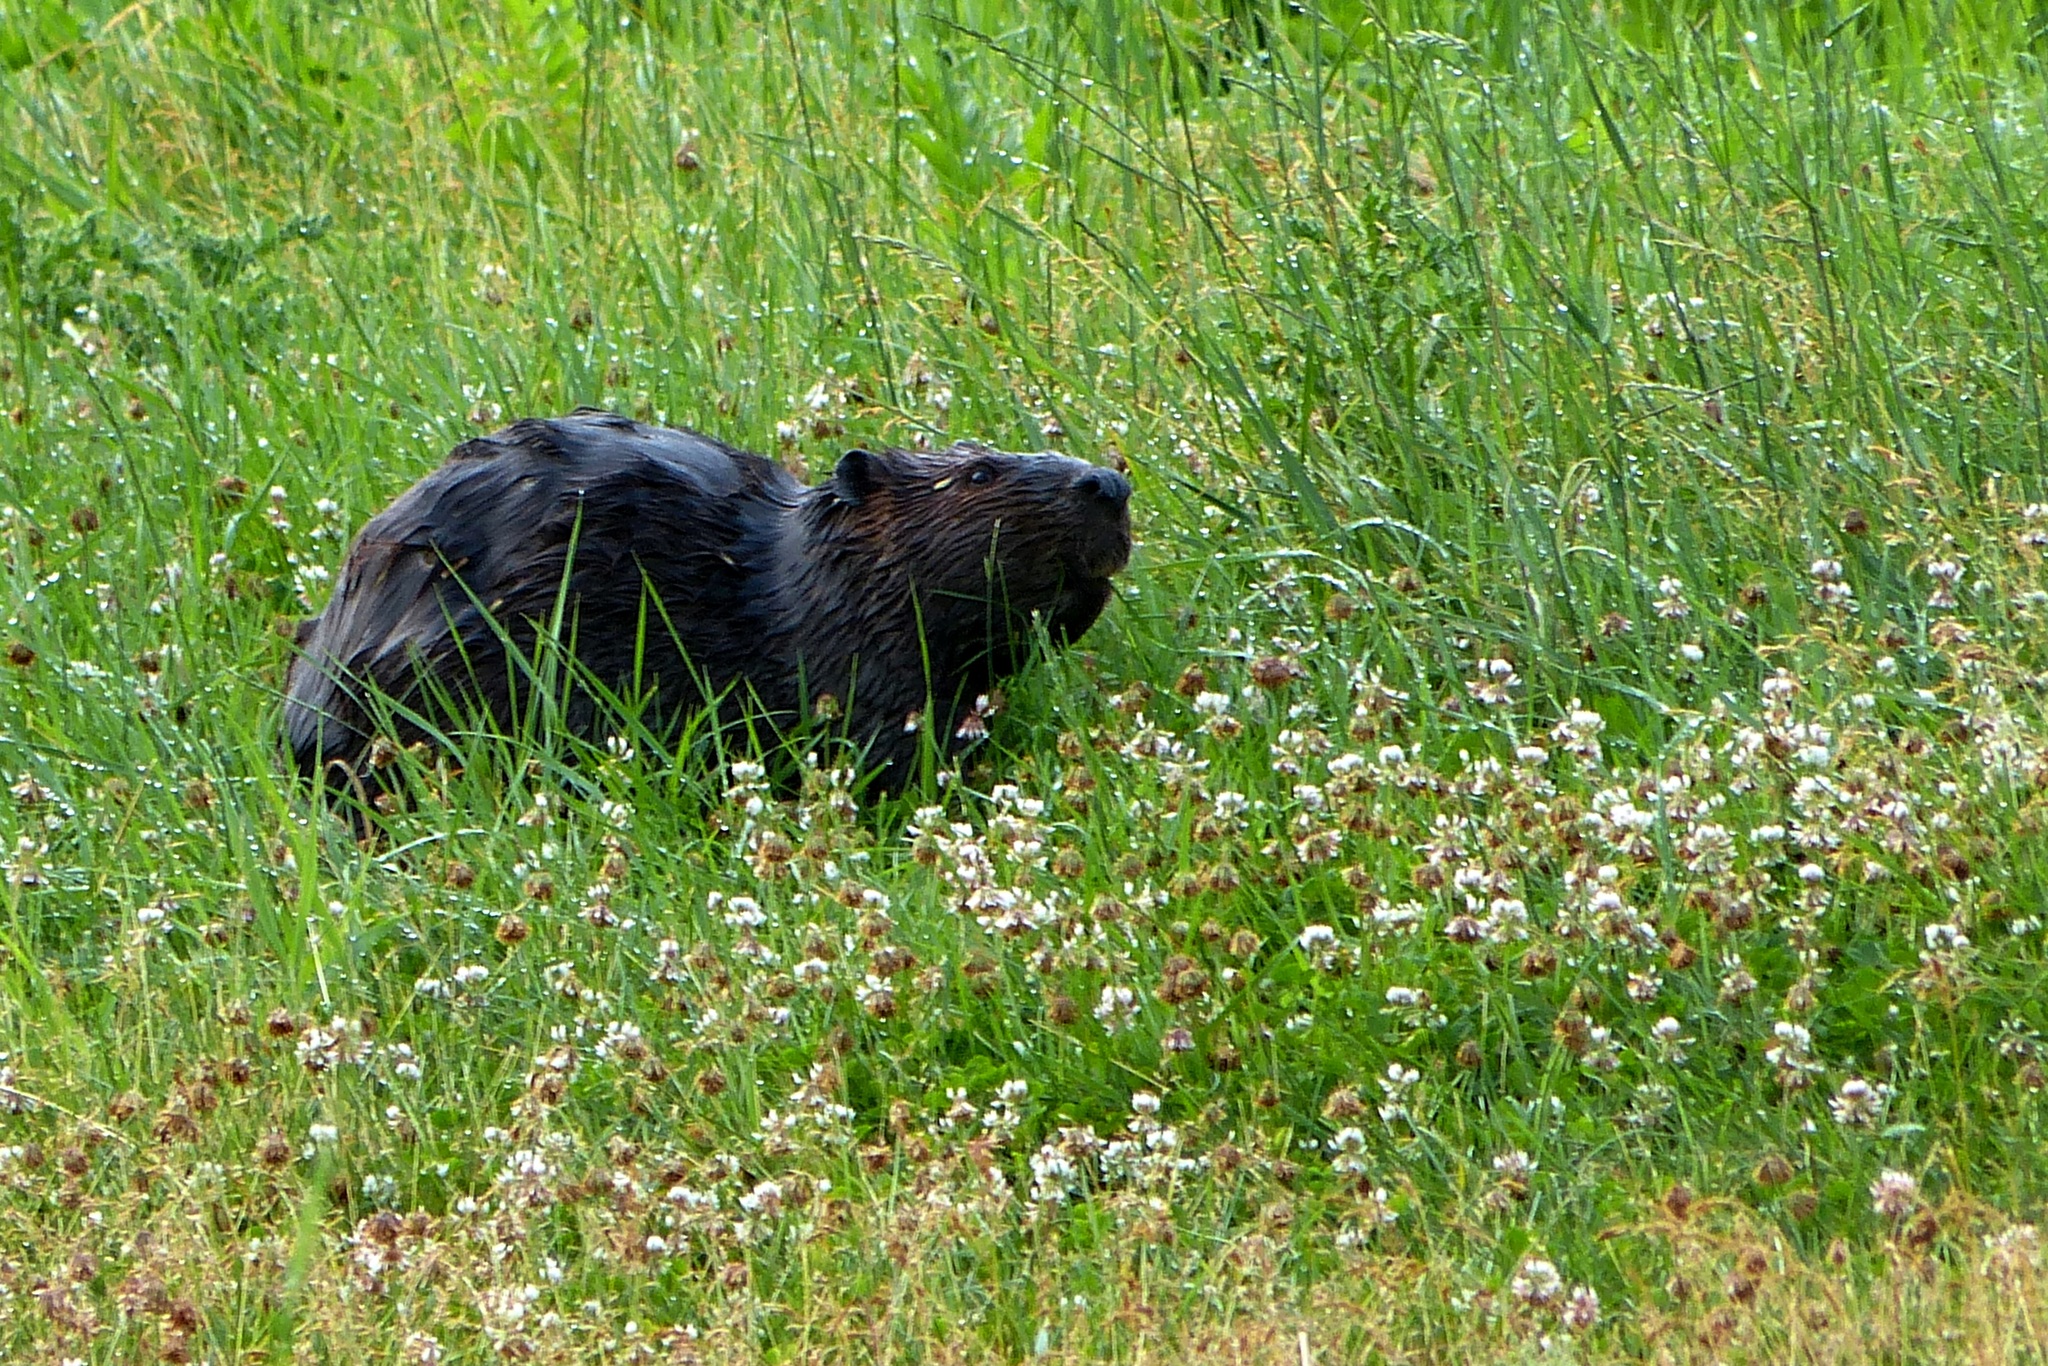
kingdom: Animalia
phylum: Chordata
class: Mammalia
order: Rodentia
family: Castoridae
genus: Castor
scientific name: Castor canadensis
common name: American beaver
